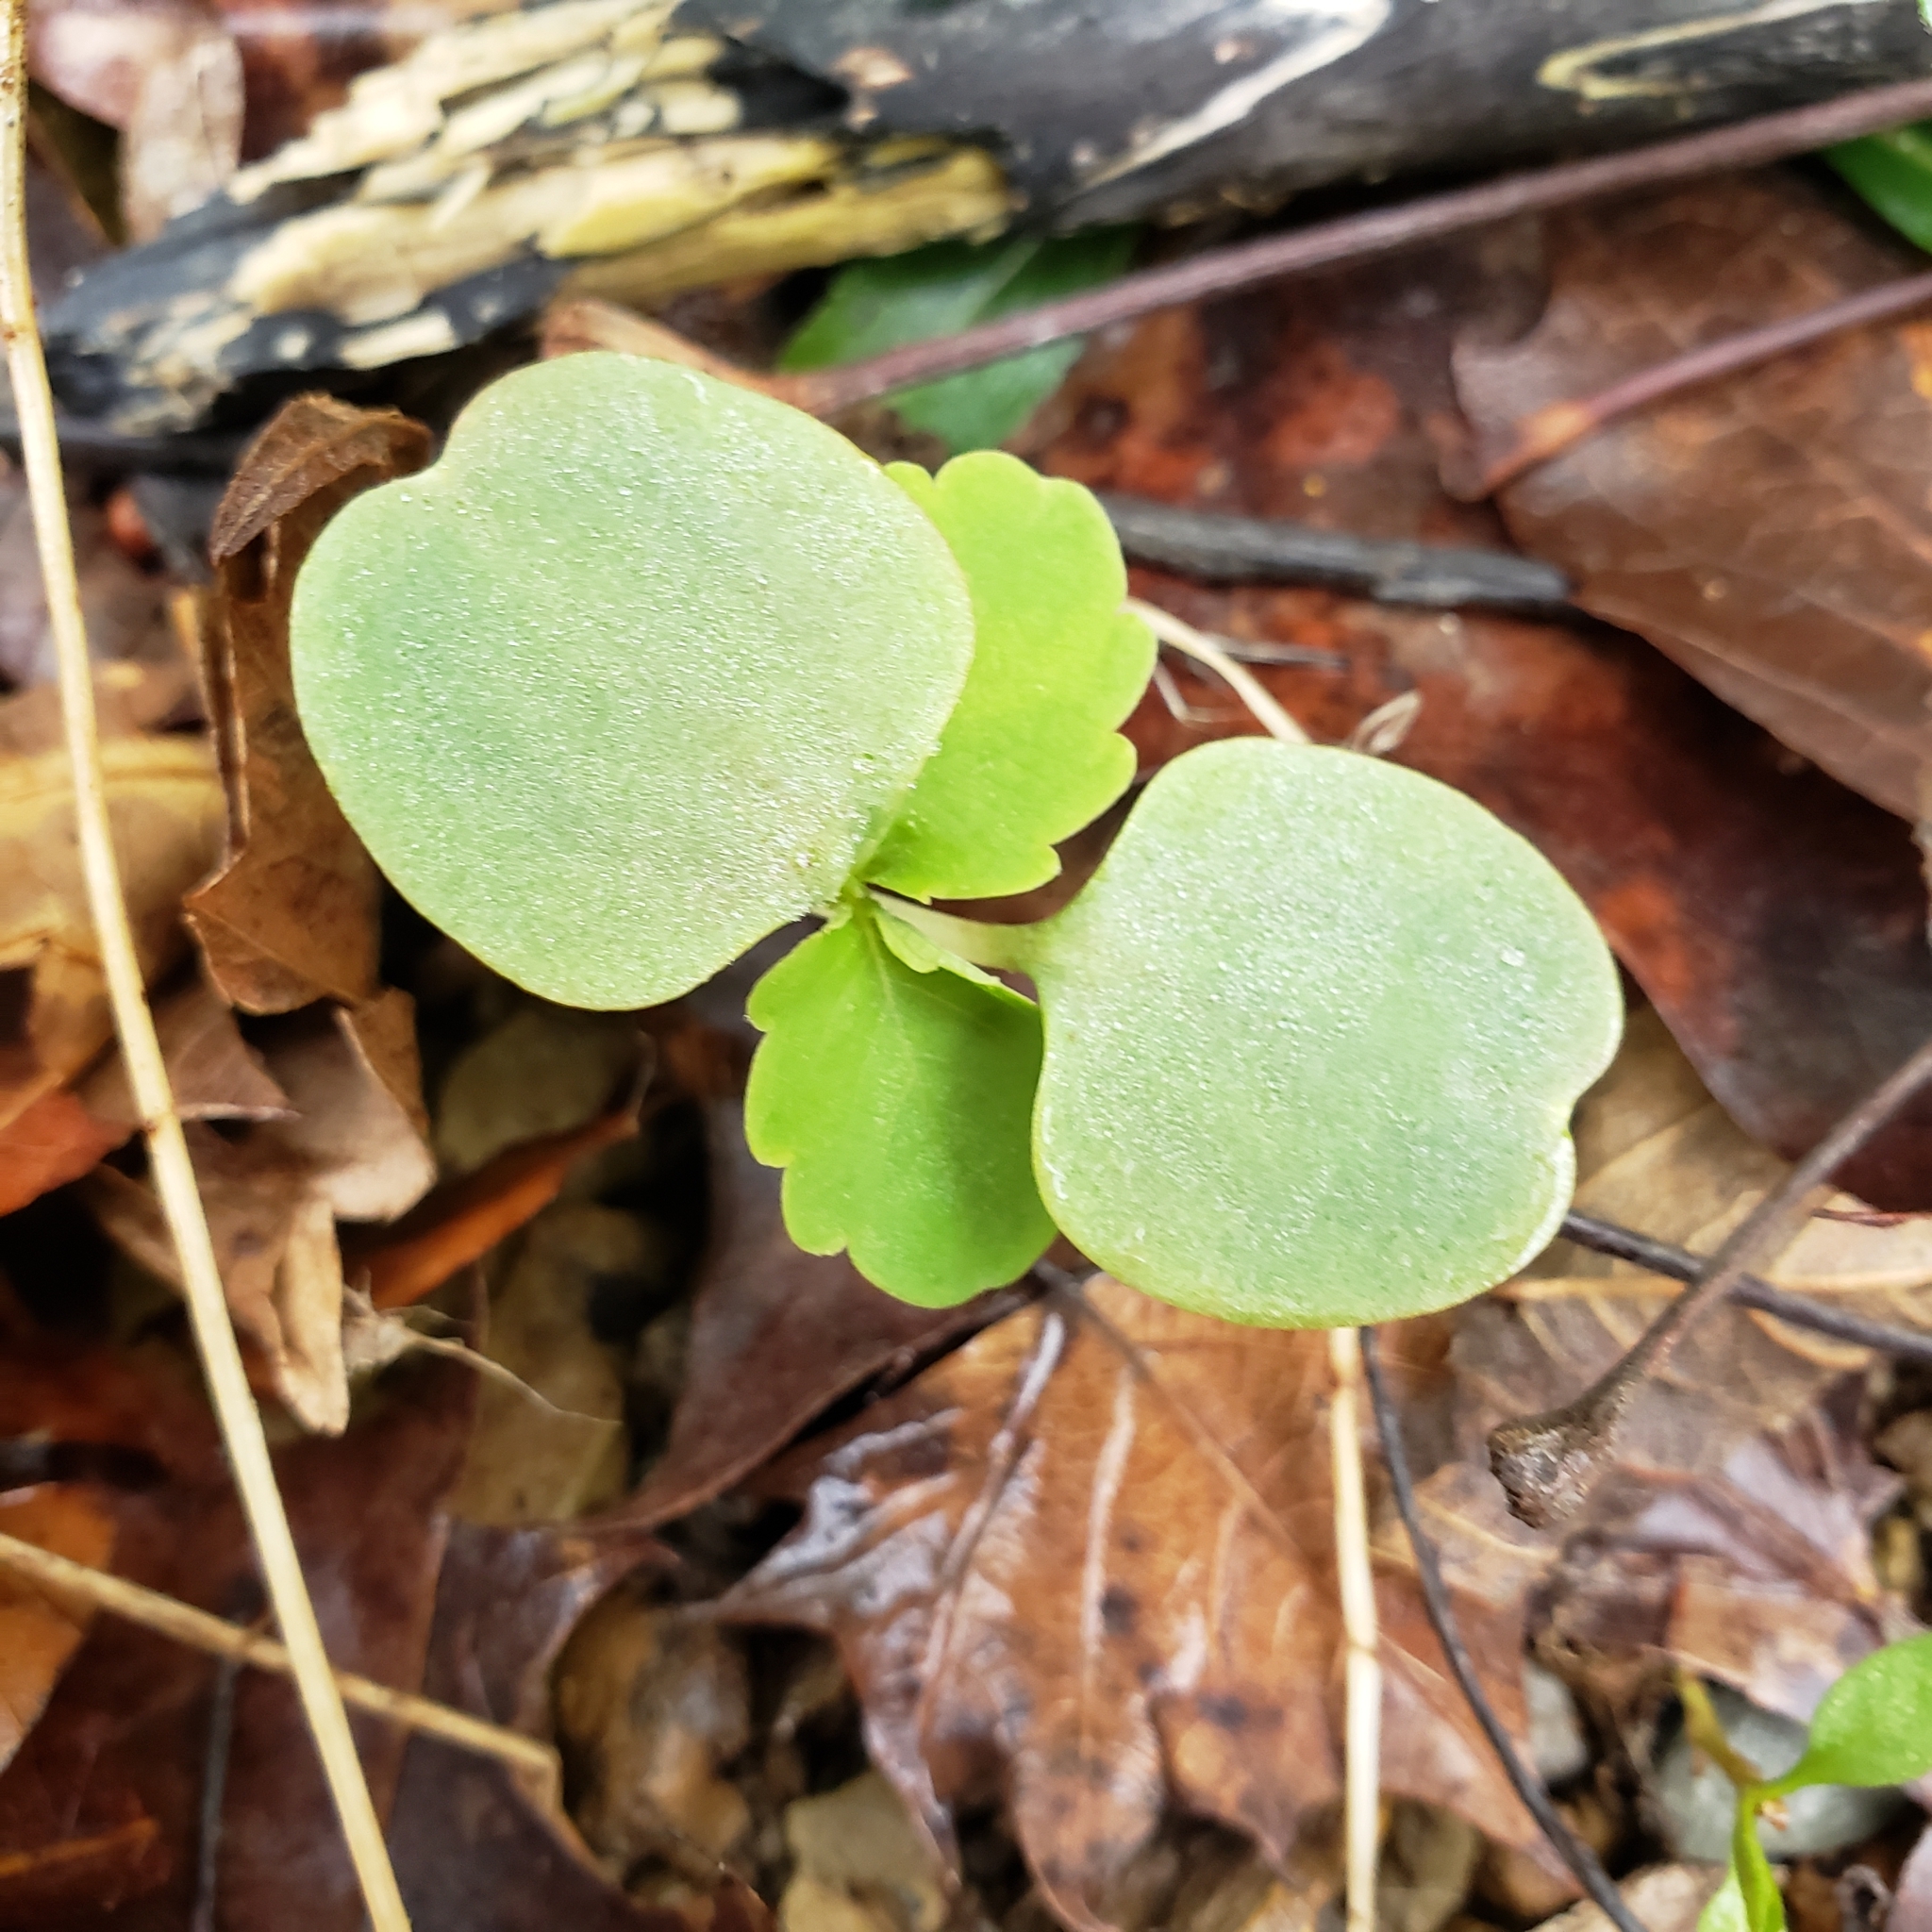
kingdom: Plantae
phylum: Tracheophyta
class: Magnoliopsida
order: Ericales
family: Balsaminaceae
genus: Impatiens
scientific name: Impatiens capensis
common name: Orange balsam
